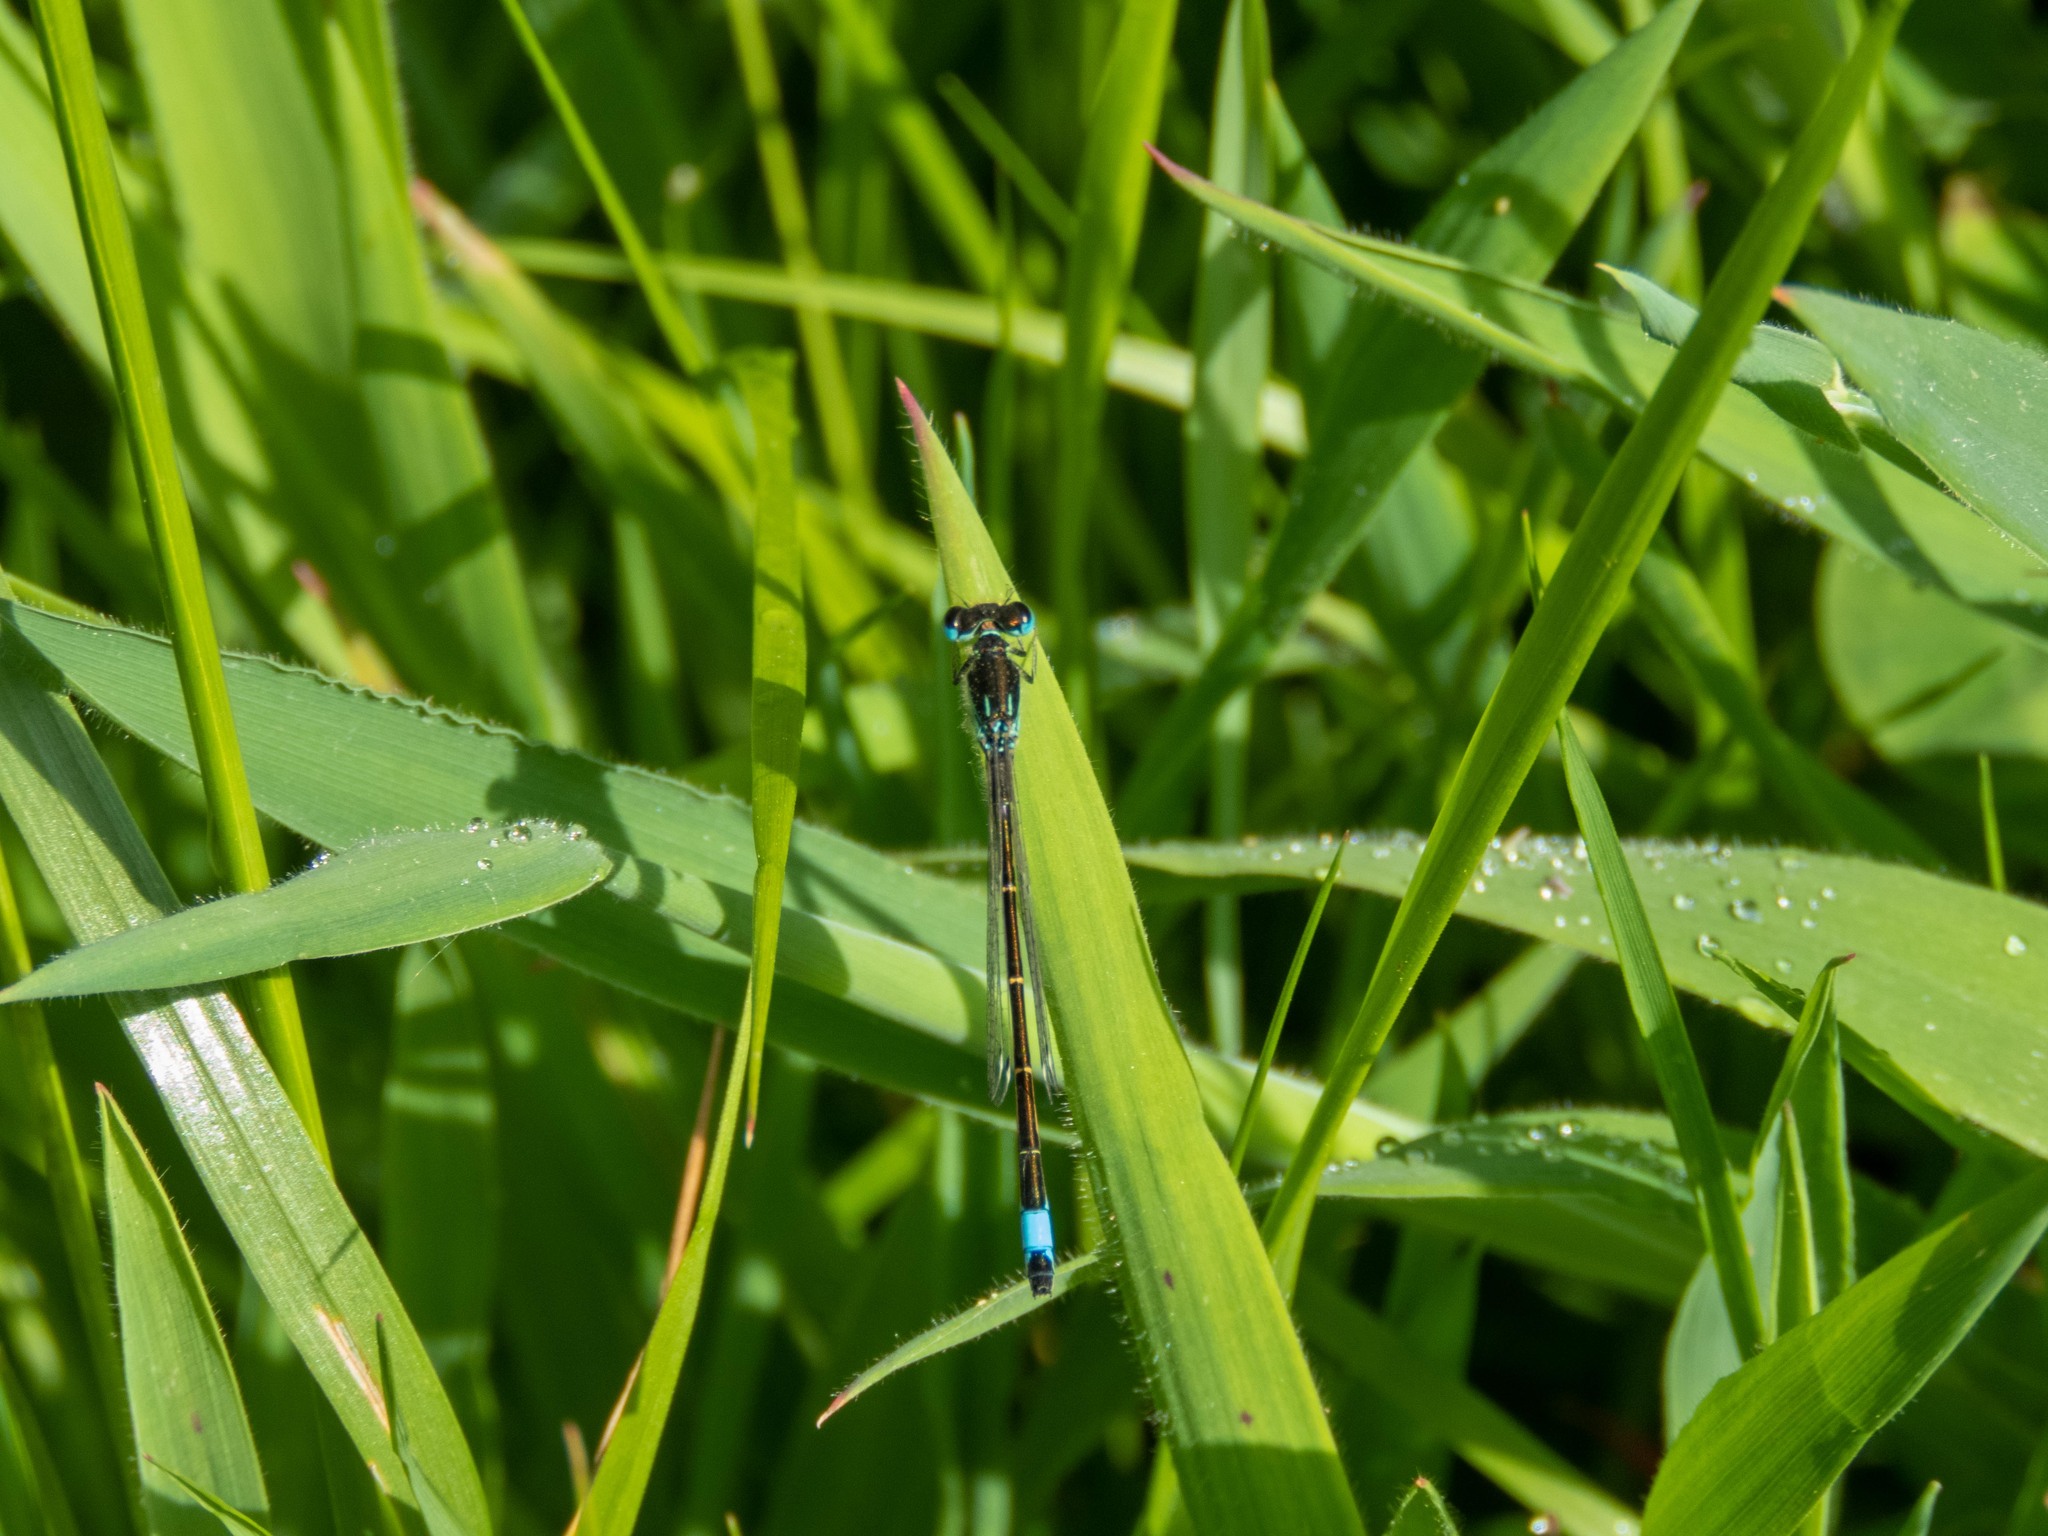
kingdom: Animalia
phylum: Arthropoda
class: Insecta
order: Odonata
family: Coenagrionidae
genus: Ischnura
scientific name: Ischnura graellsii
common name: Iberian bluetail
